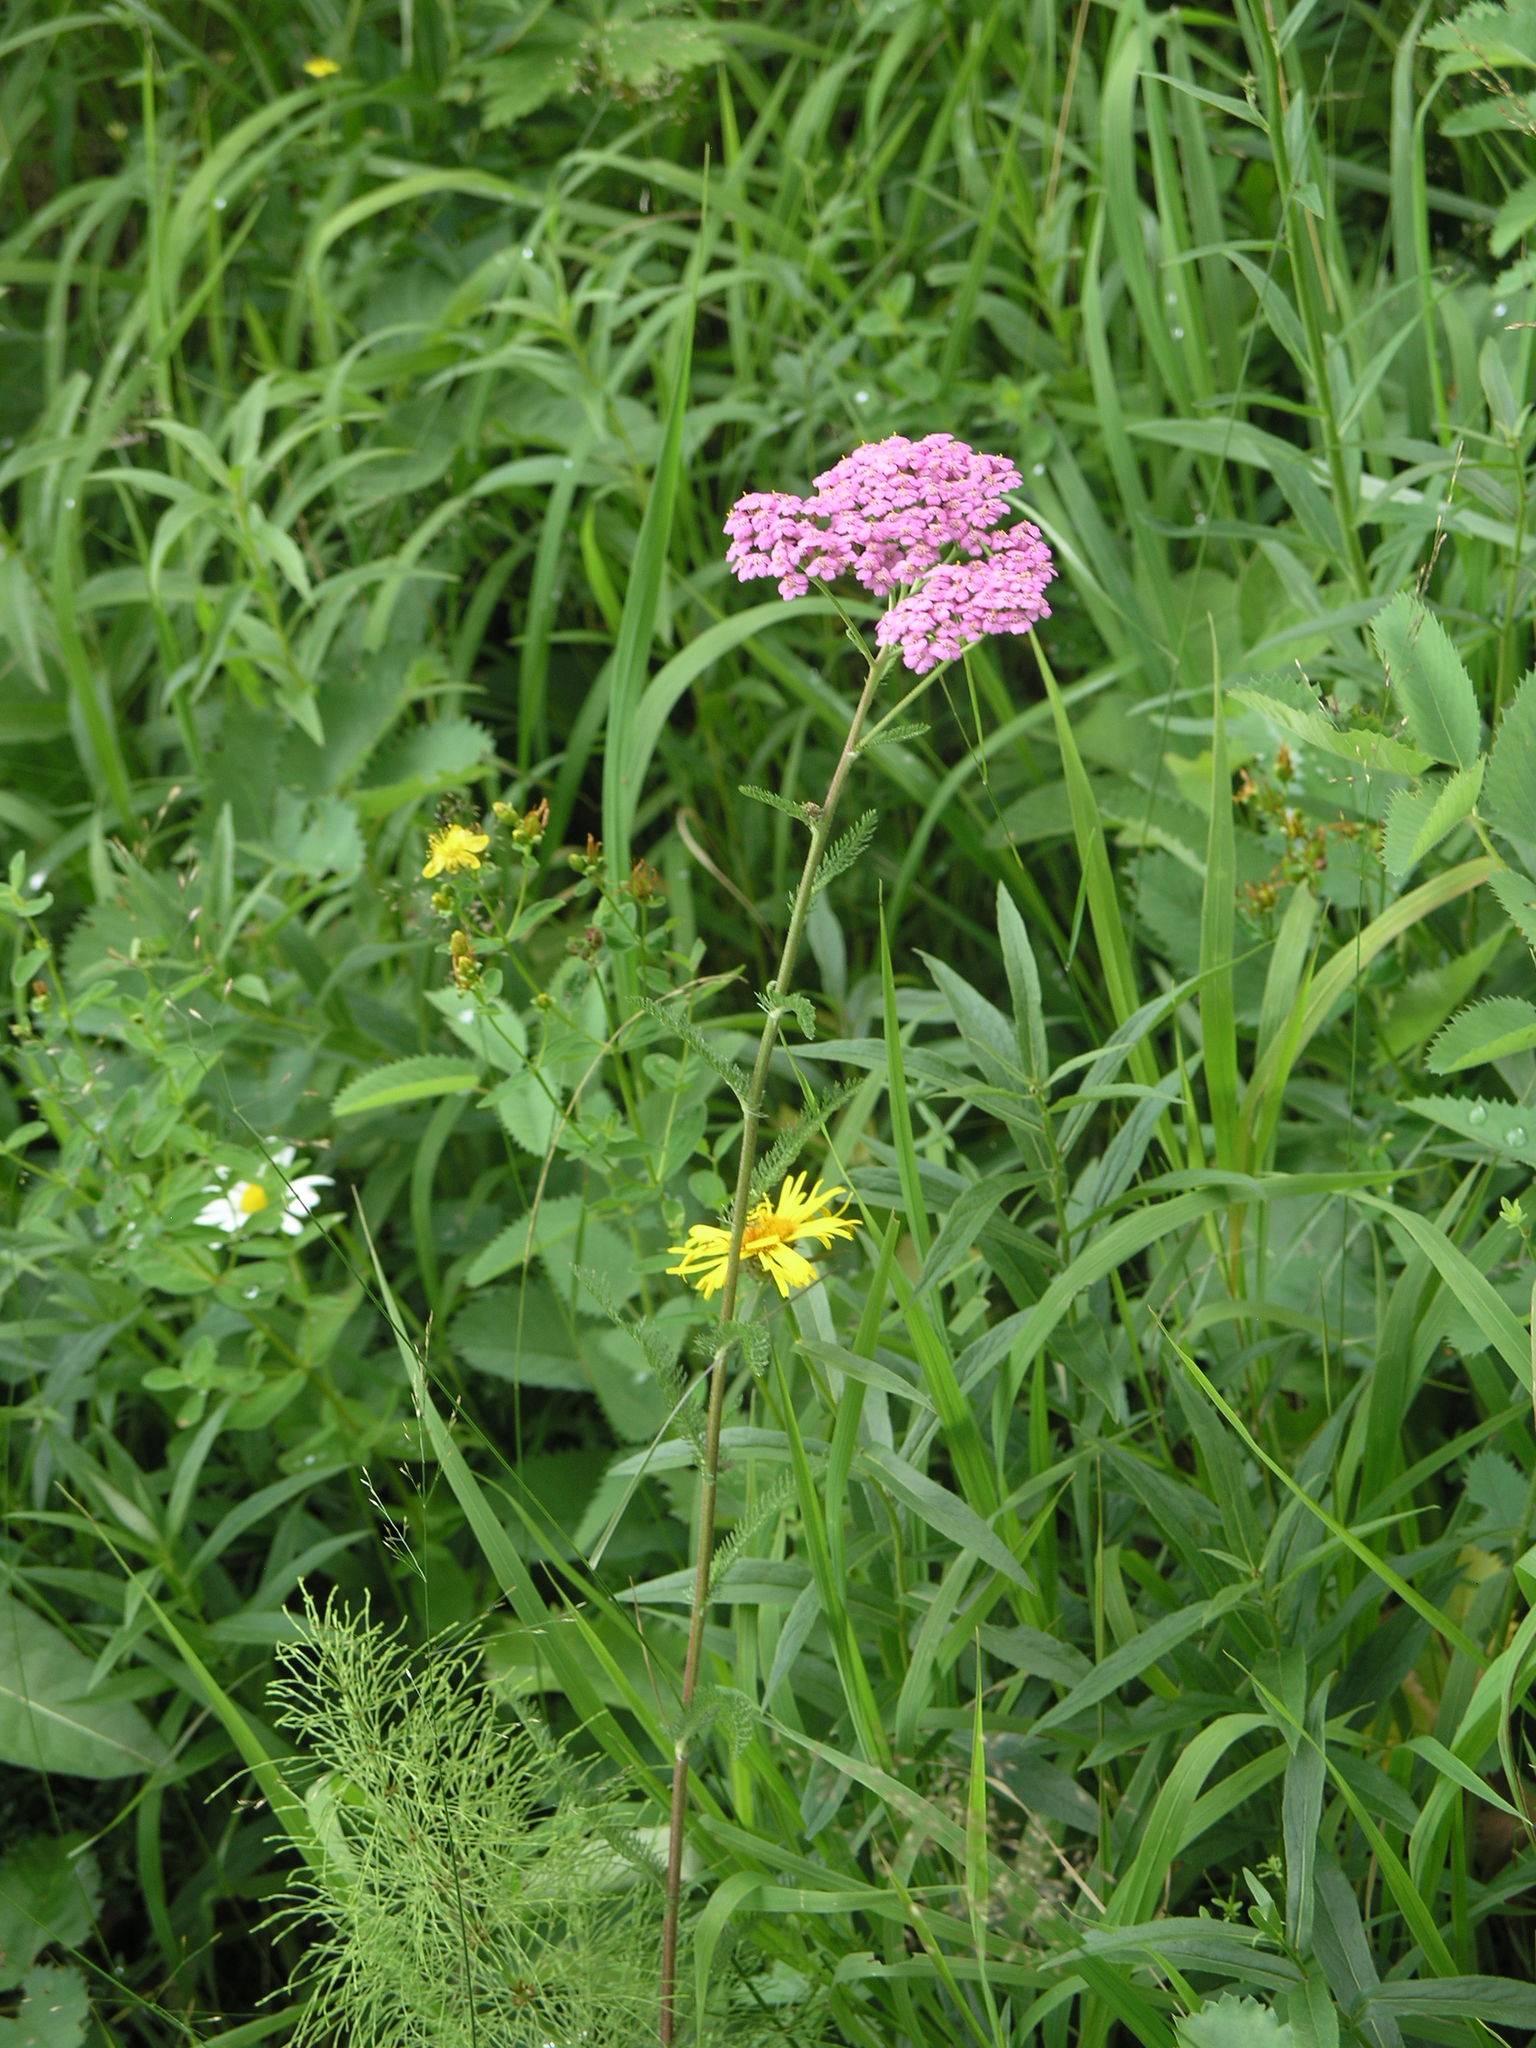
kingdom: Plantae
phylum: Tracheophyta
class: Magnoliopsida
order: Asterales
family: Asteraceae
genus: Achillea
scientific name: Achillea millefolium
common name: Yarrow
